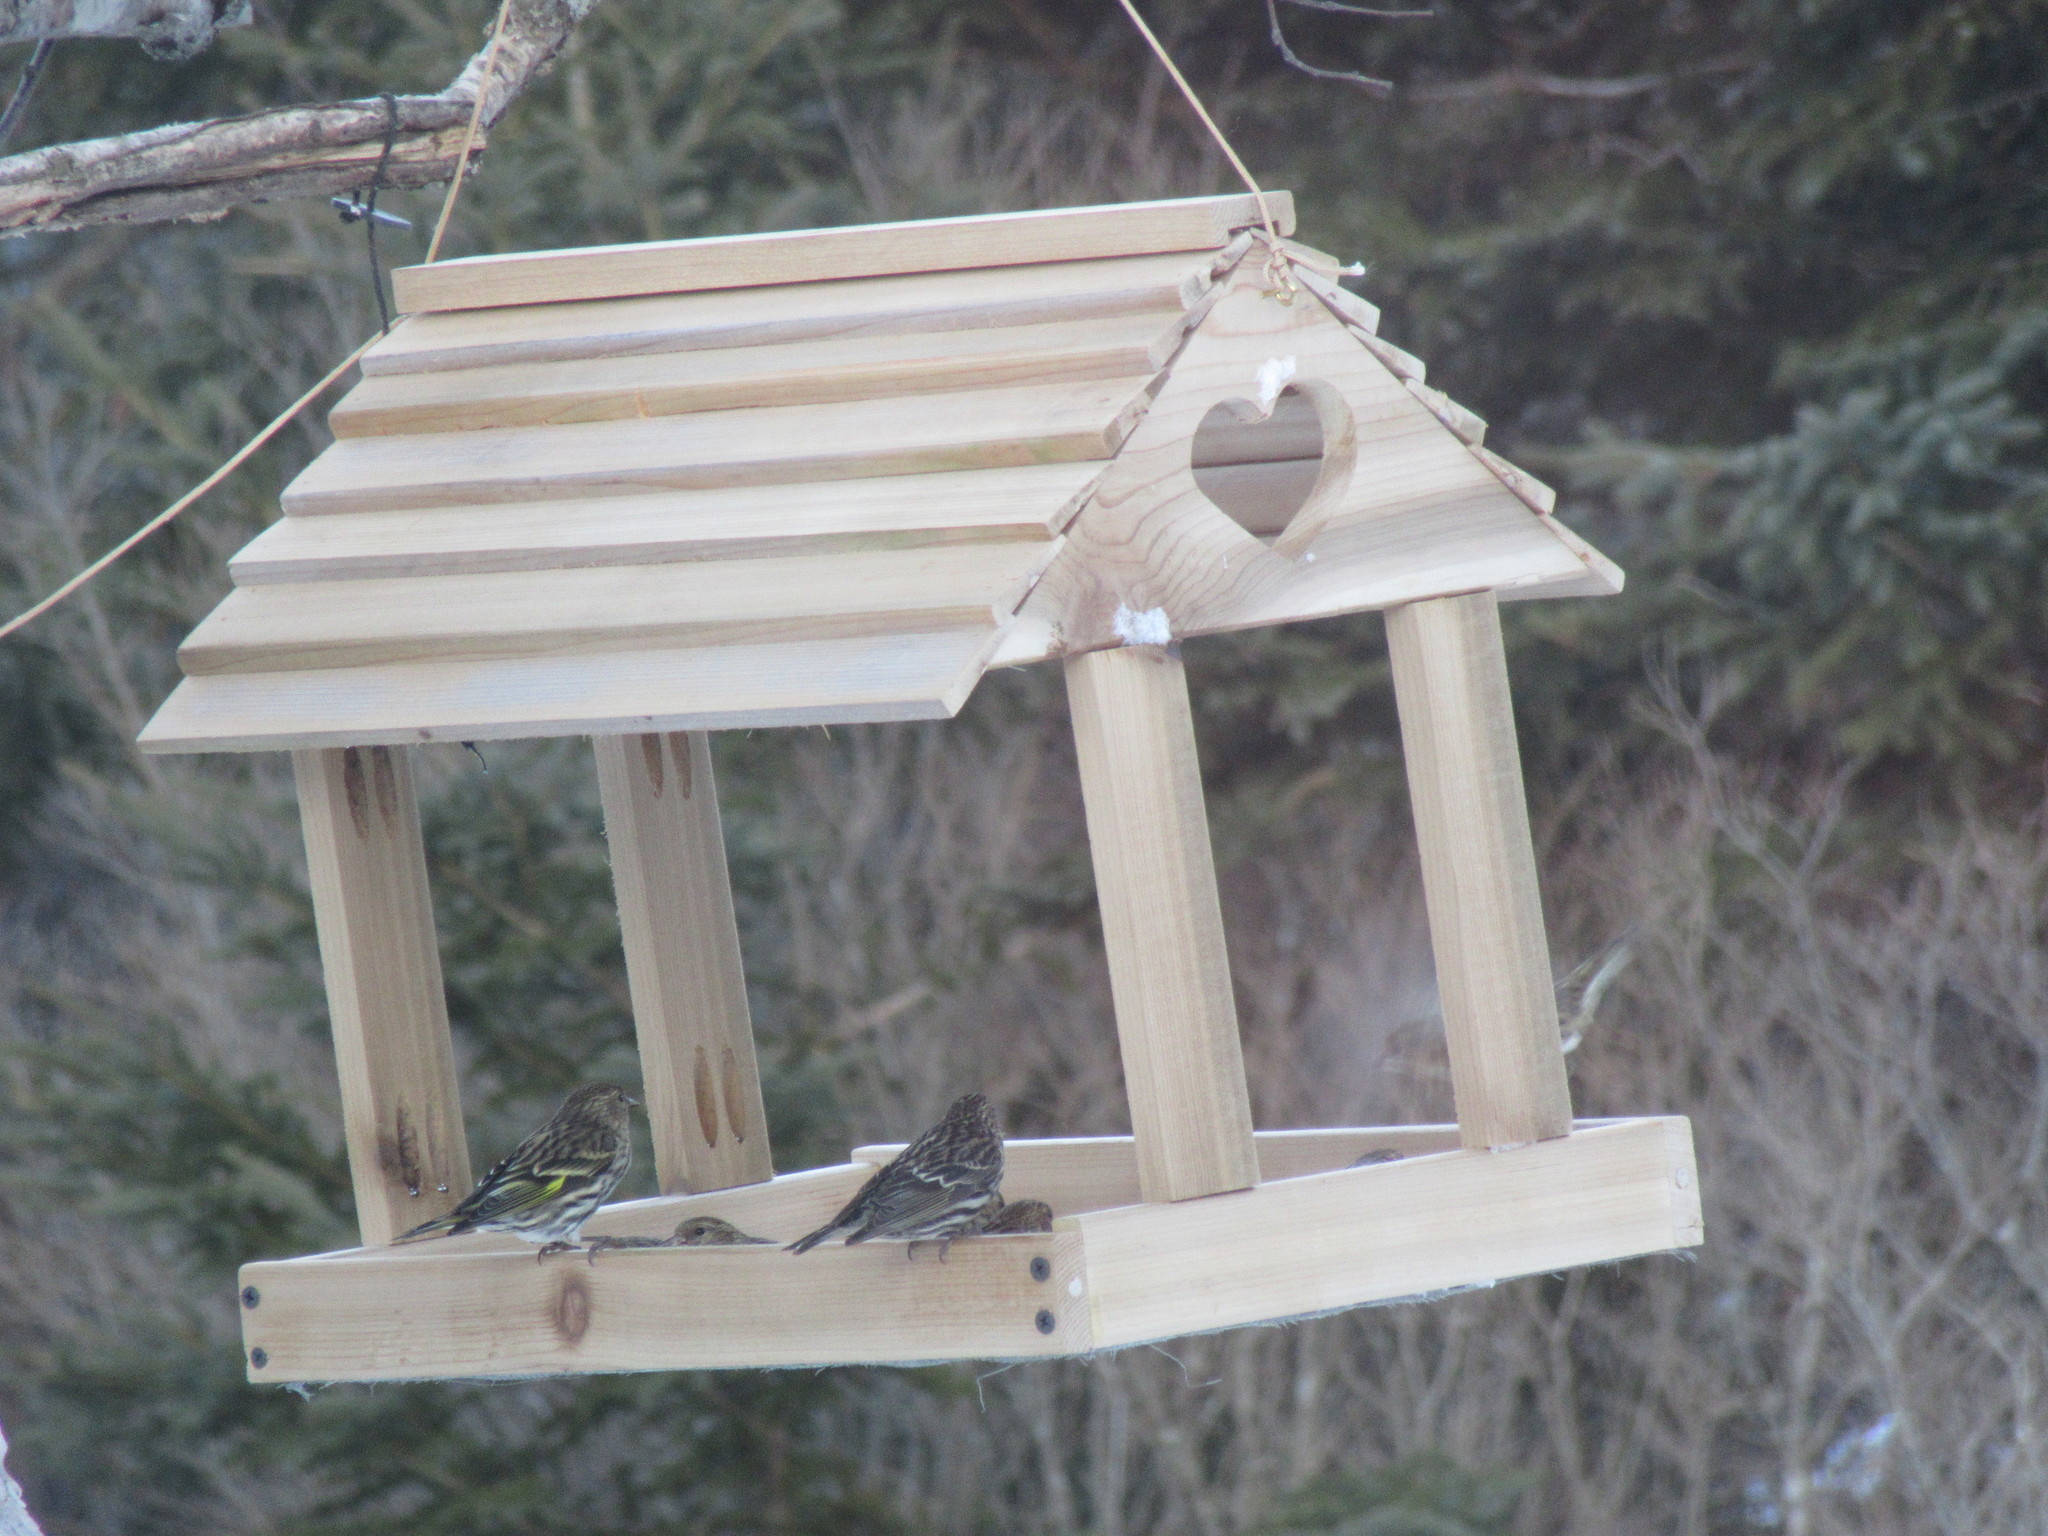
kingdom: Animalia
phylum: Chordata
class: Aves
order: Passeriformes
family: Fringillidae
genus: Spinus
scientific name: Spinus pinus
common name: Pine siskin
